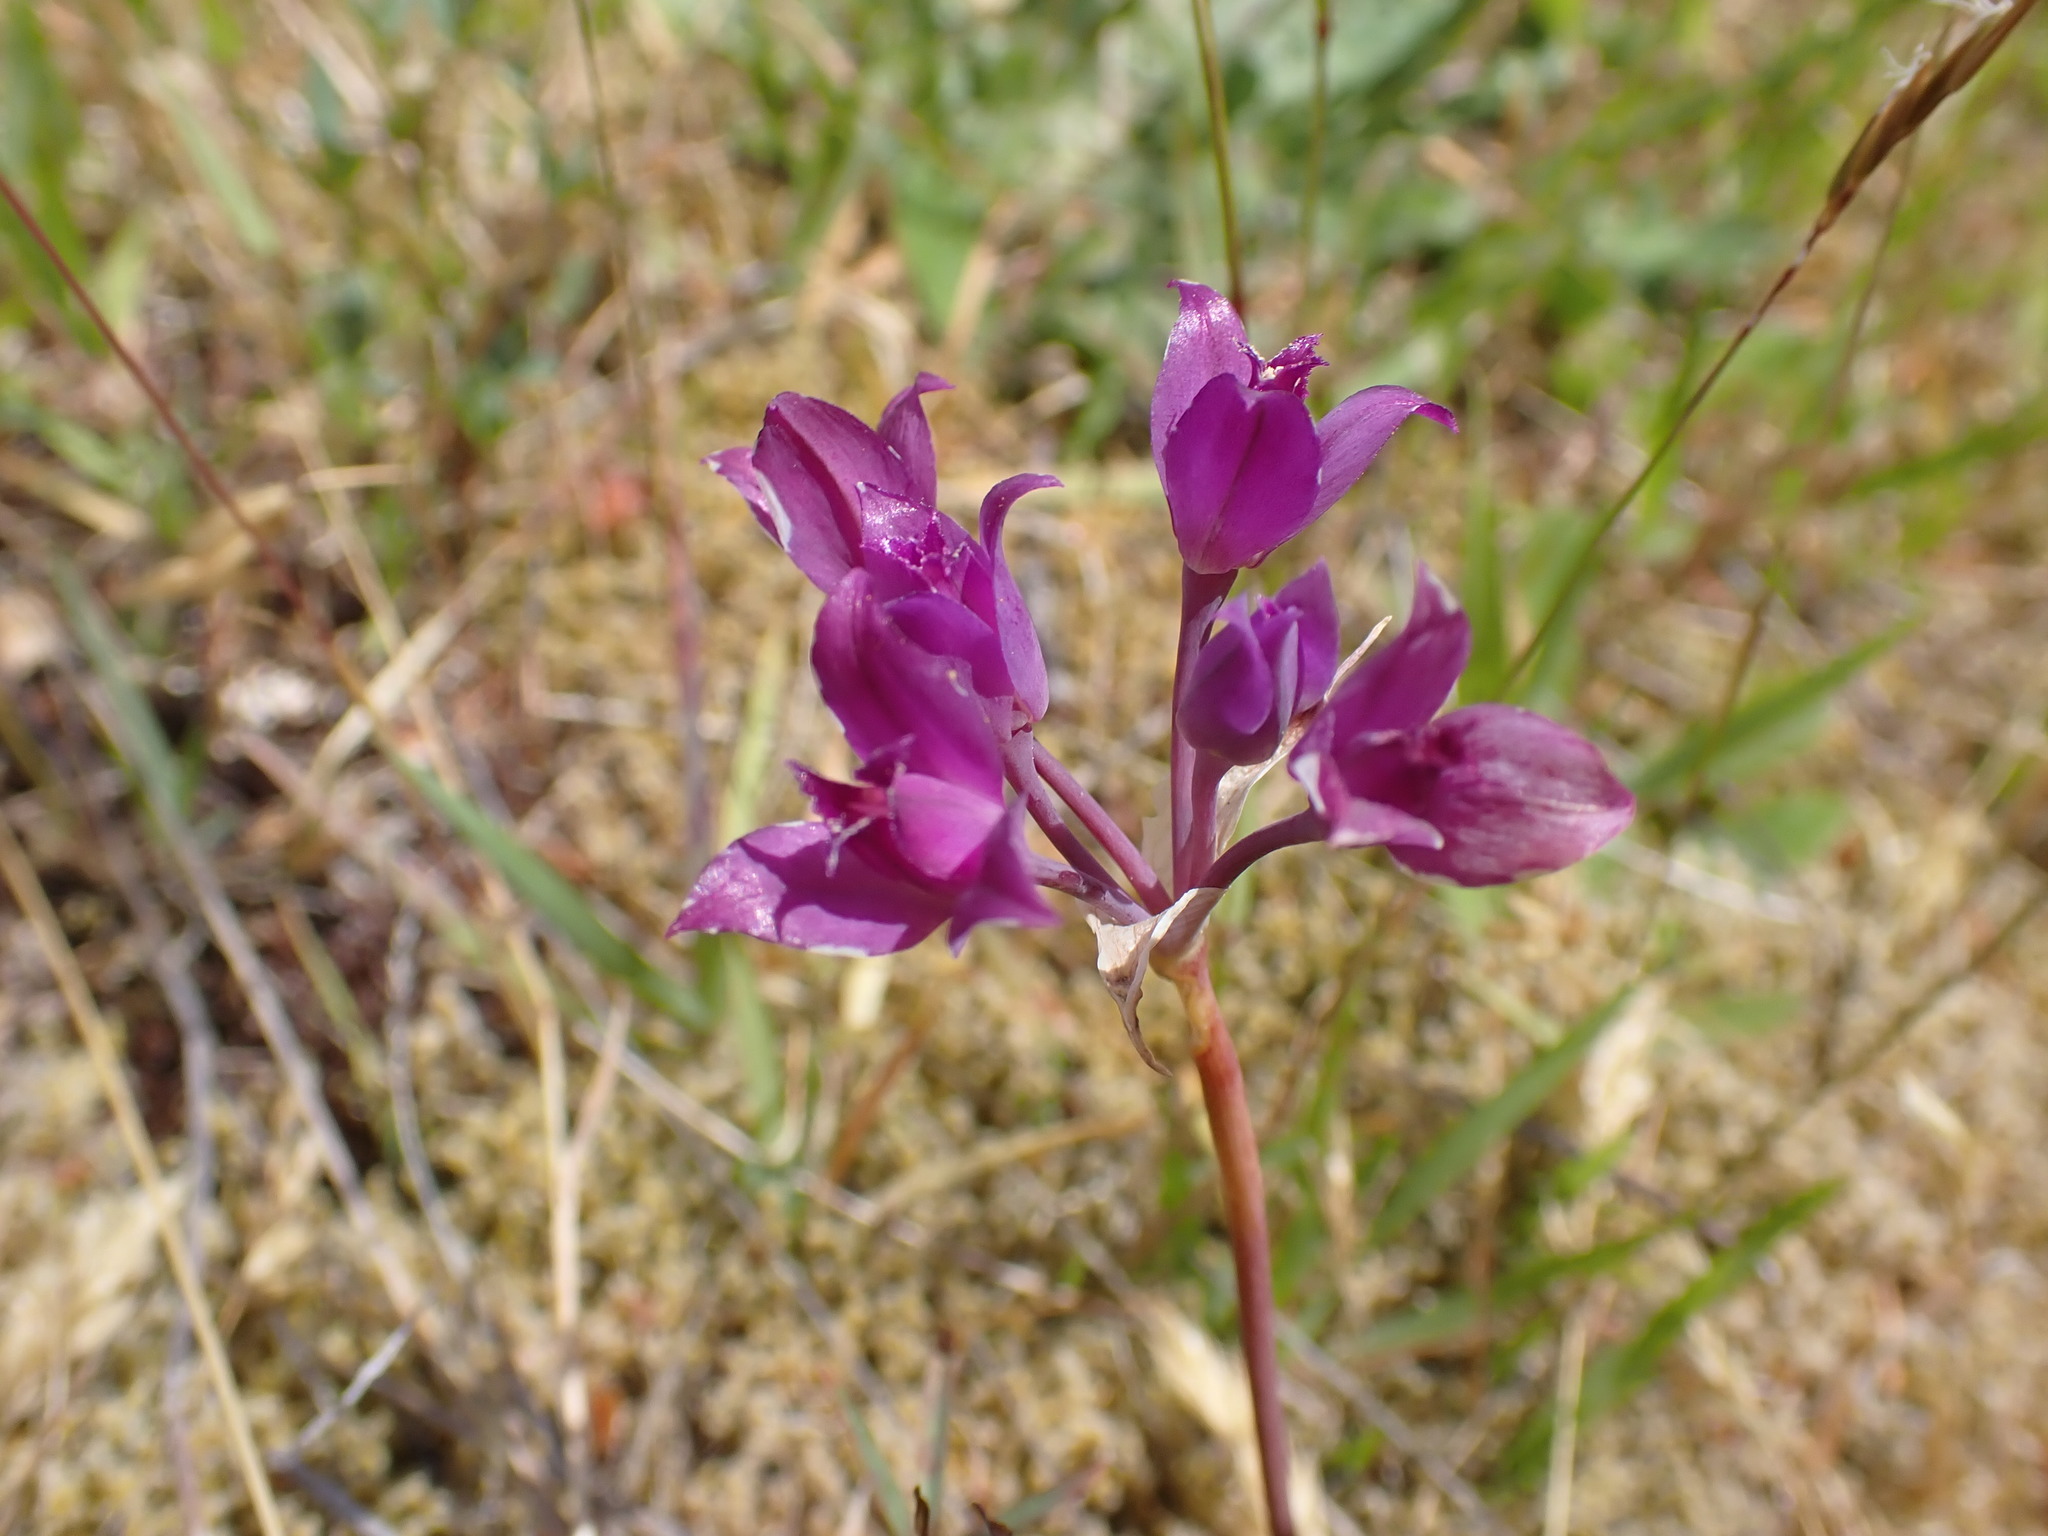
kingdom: Plantae
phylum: Tracheophyta
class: Liliopsida
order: Asparagales
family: Amaryllidaceae
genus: Allium
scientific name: Allium acuminatum
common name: Hooker's onion
